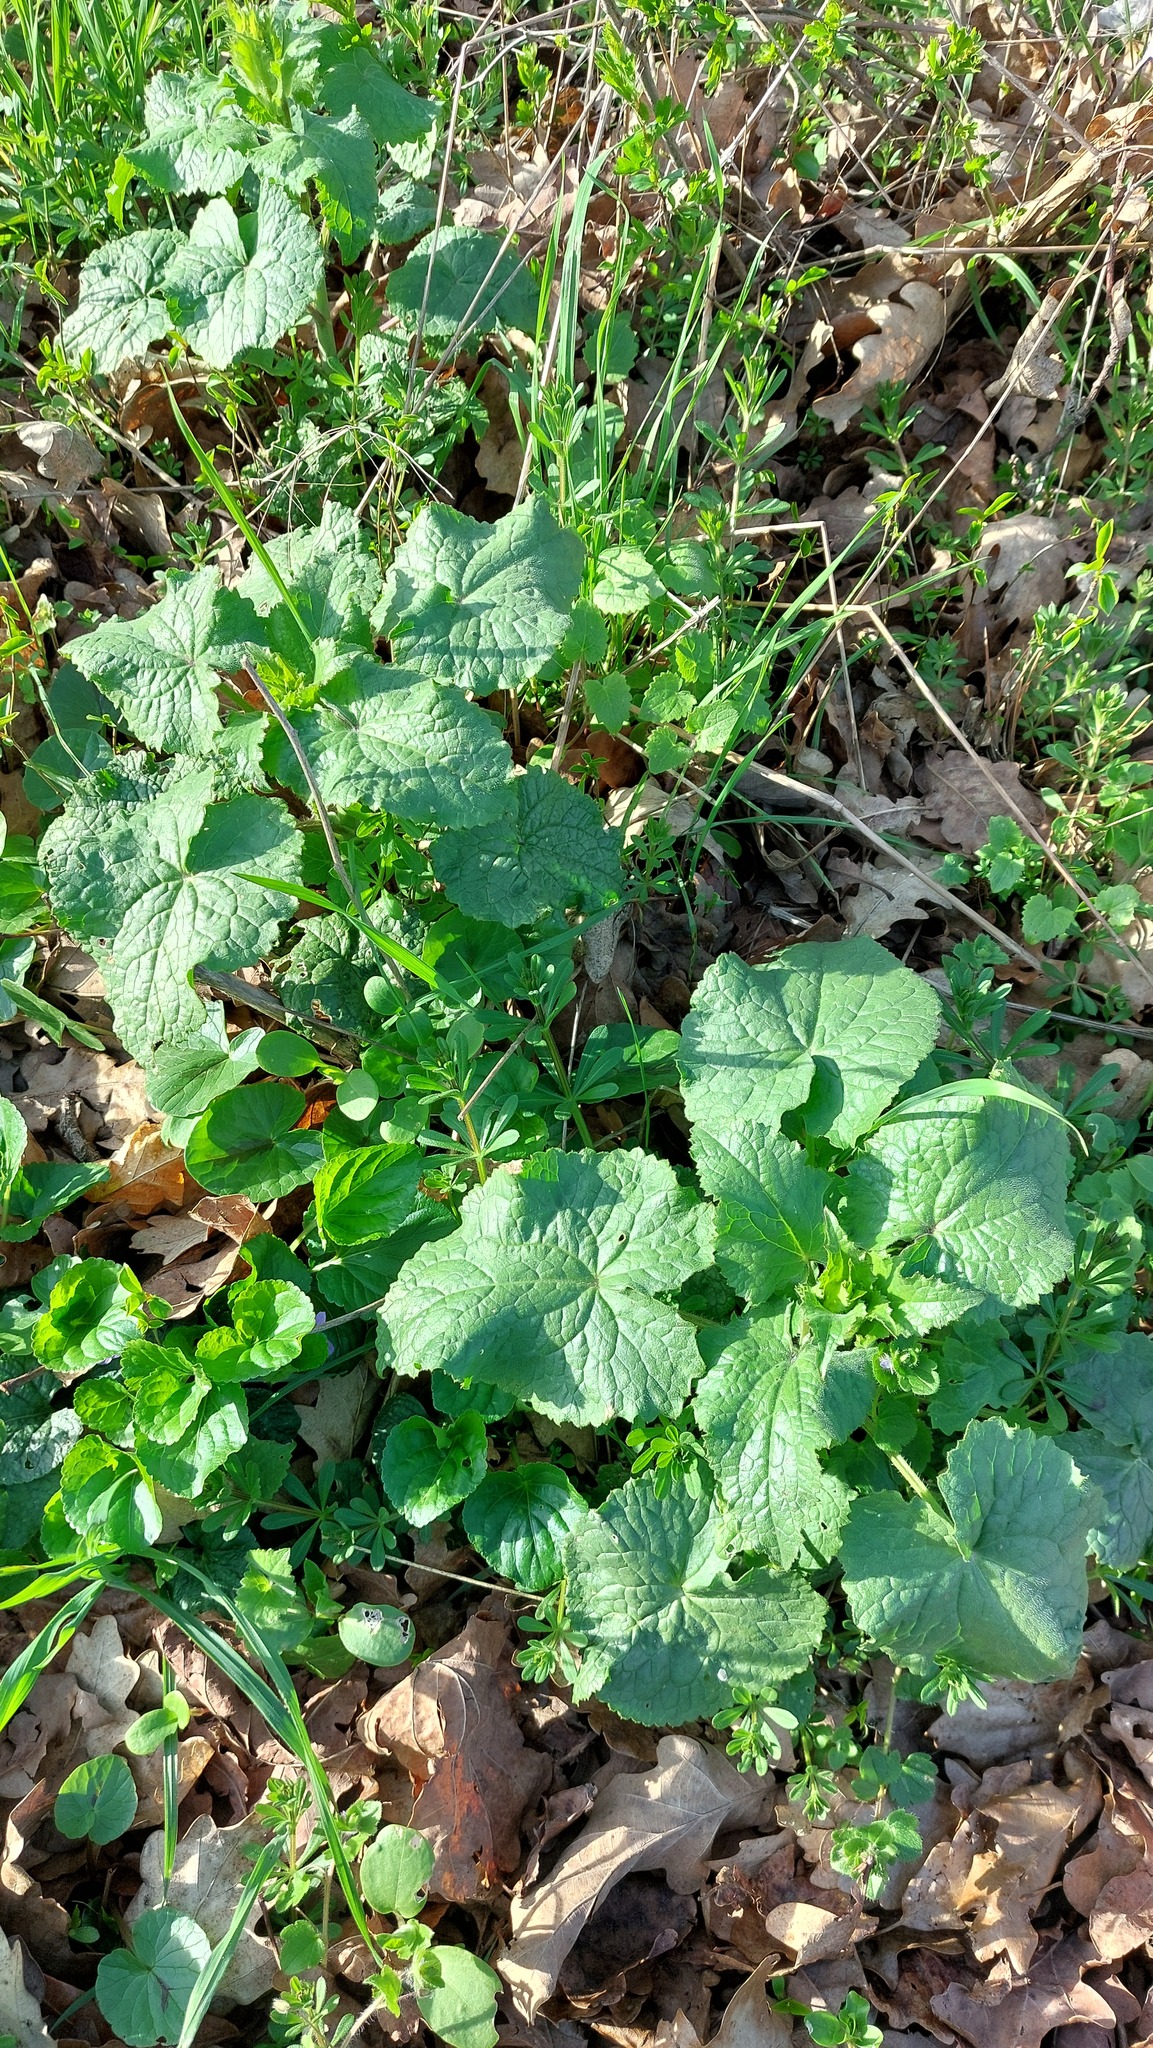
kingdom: Plantae
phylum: Tracheophyta
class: Magnoliopsida
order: Brassicales
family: Brassicaceae
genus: Lunaria
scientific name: Lunaria annua
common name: Honesty
